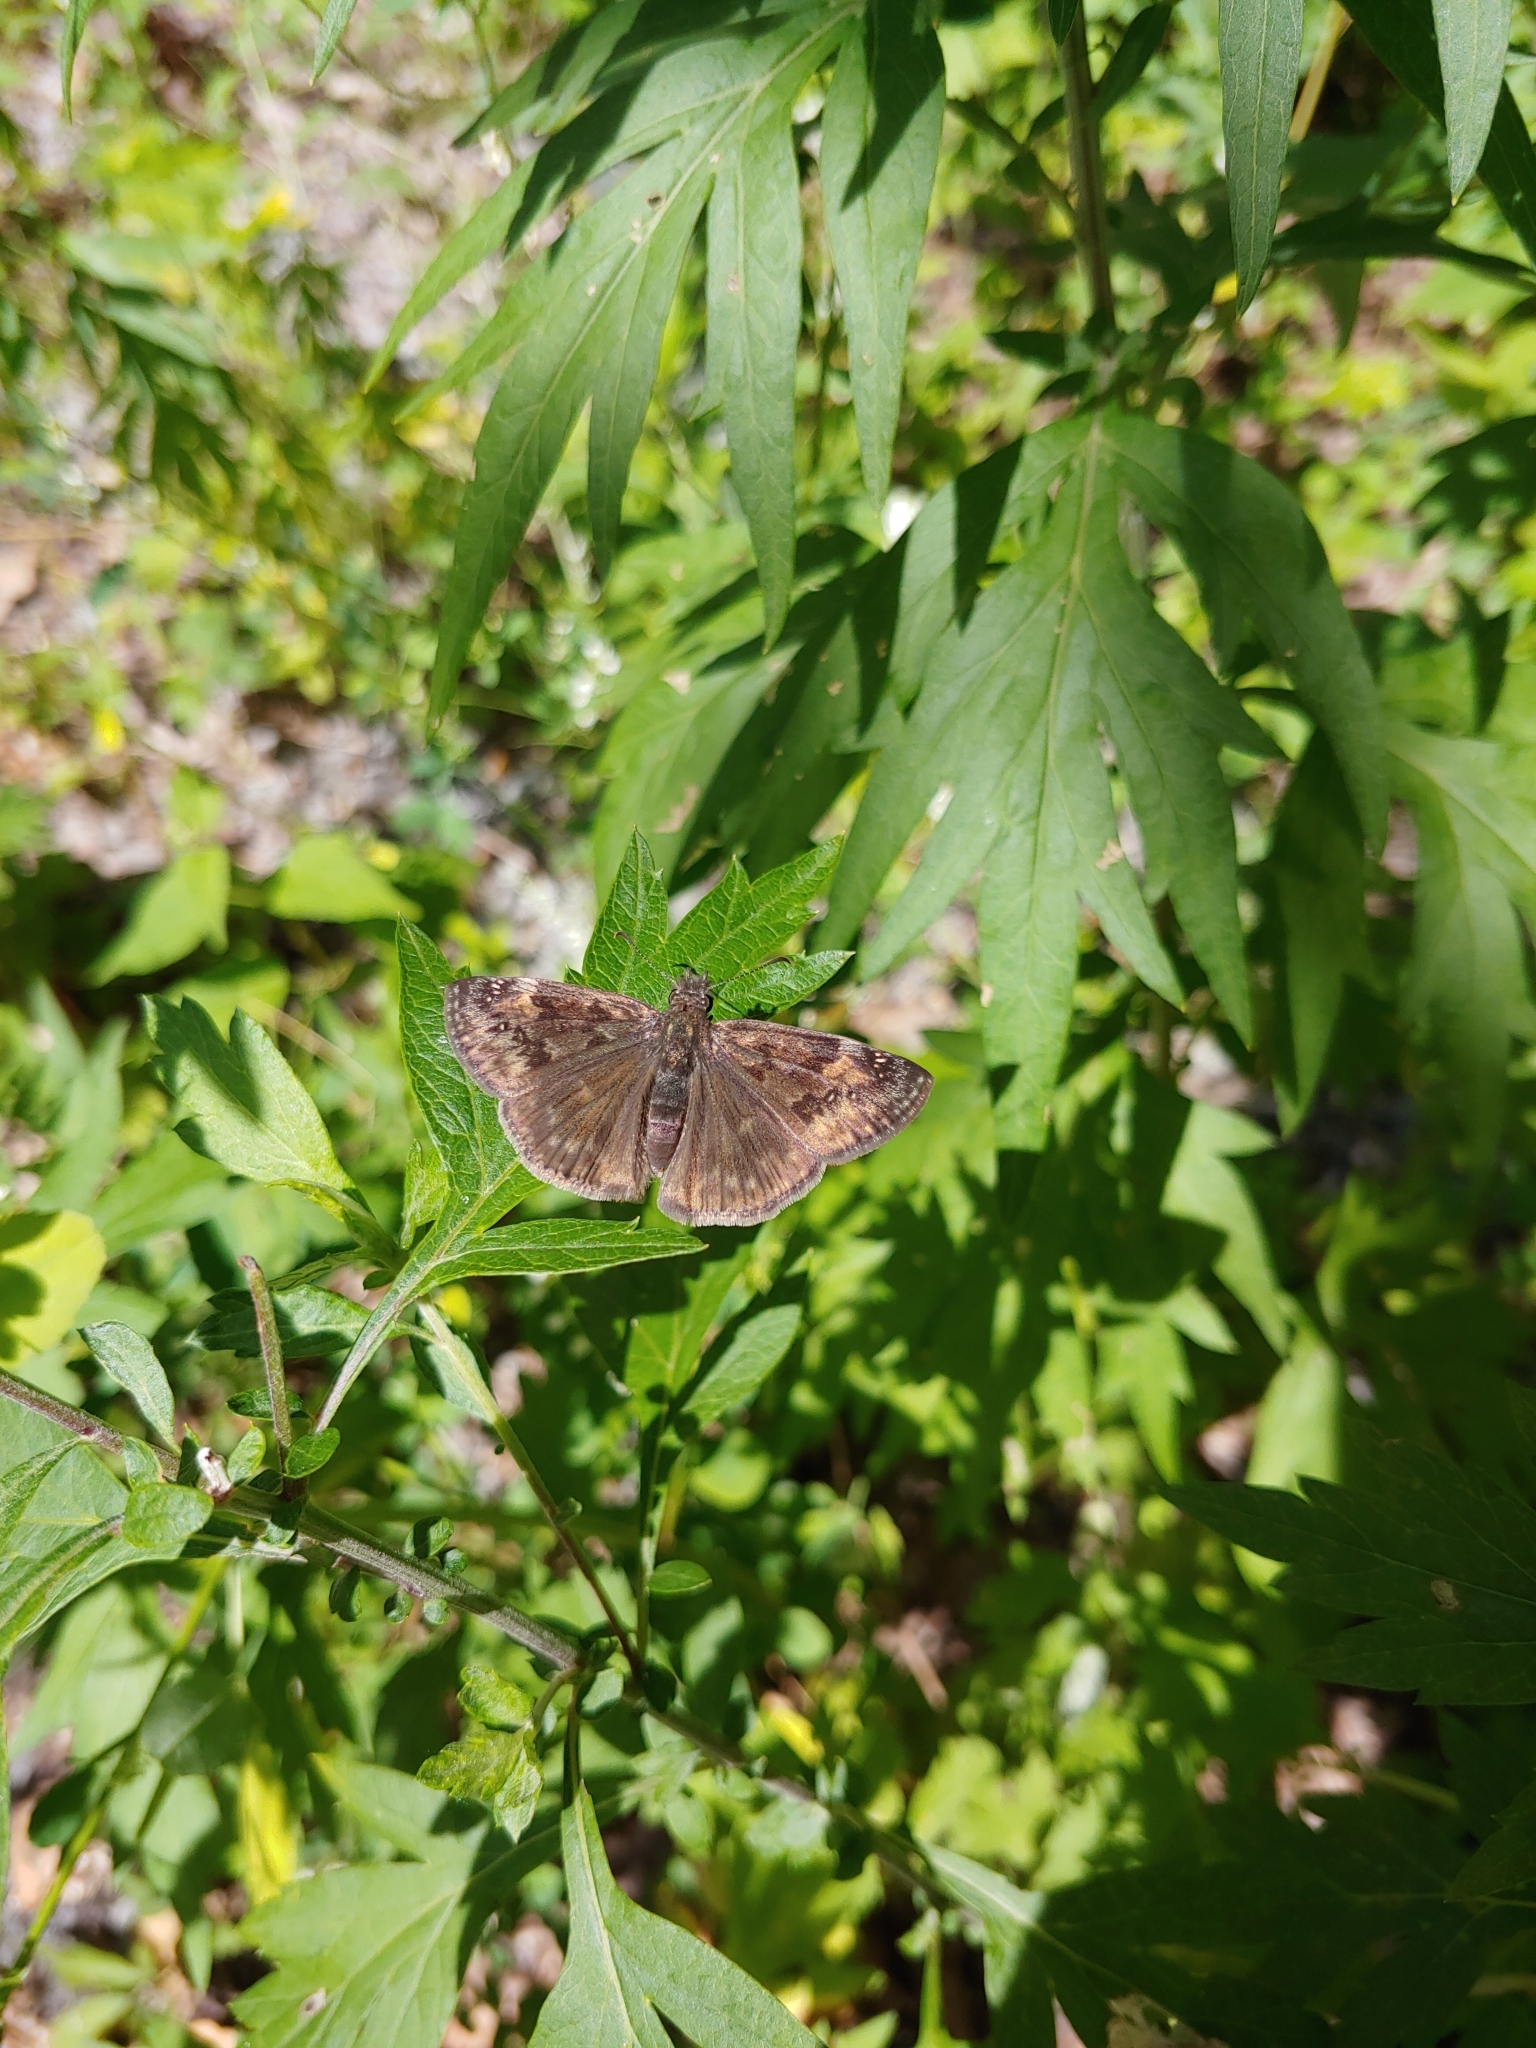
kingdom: Animalia
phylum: Arthropoda
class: Insecta
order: Lepidoptera
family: Hesperiidae
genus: Erynnis
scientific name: Erynnis baptisiae
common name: Wild indigo duskywing
